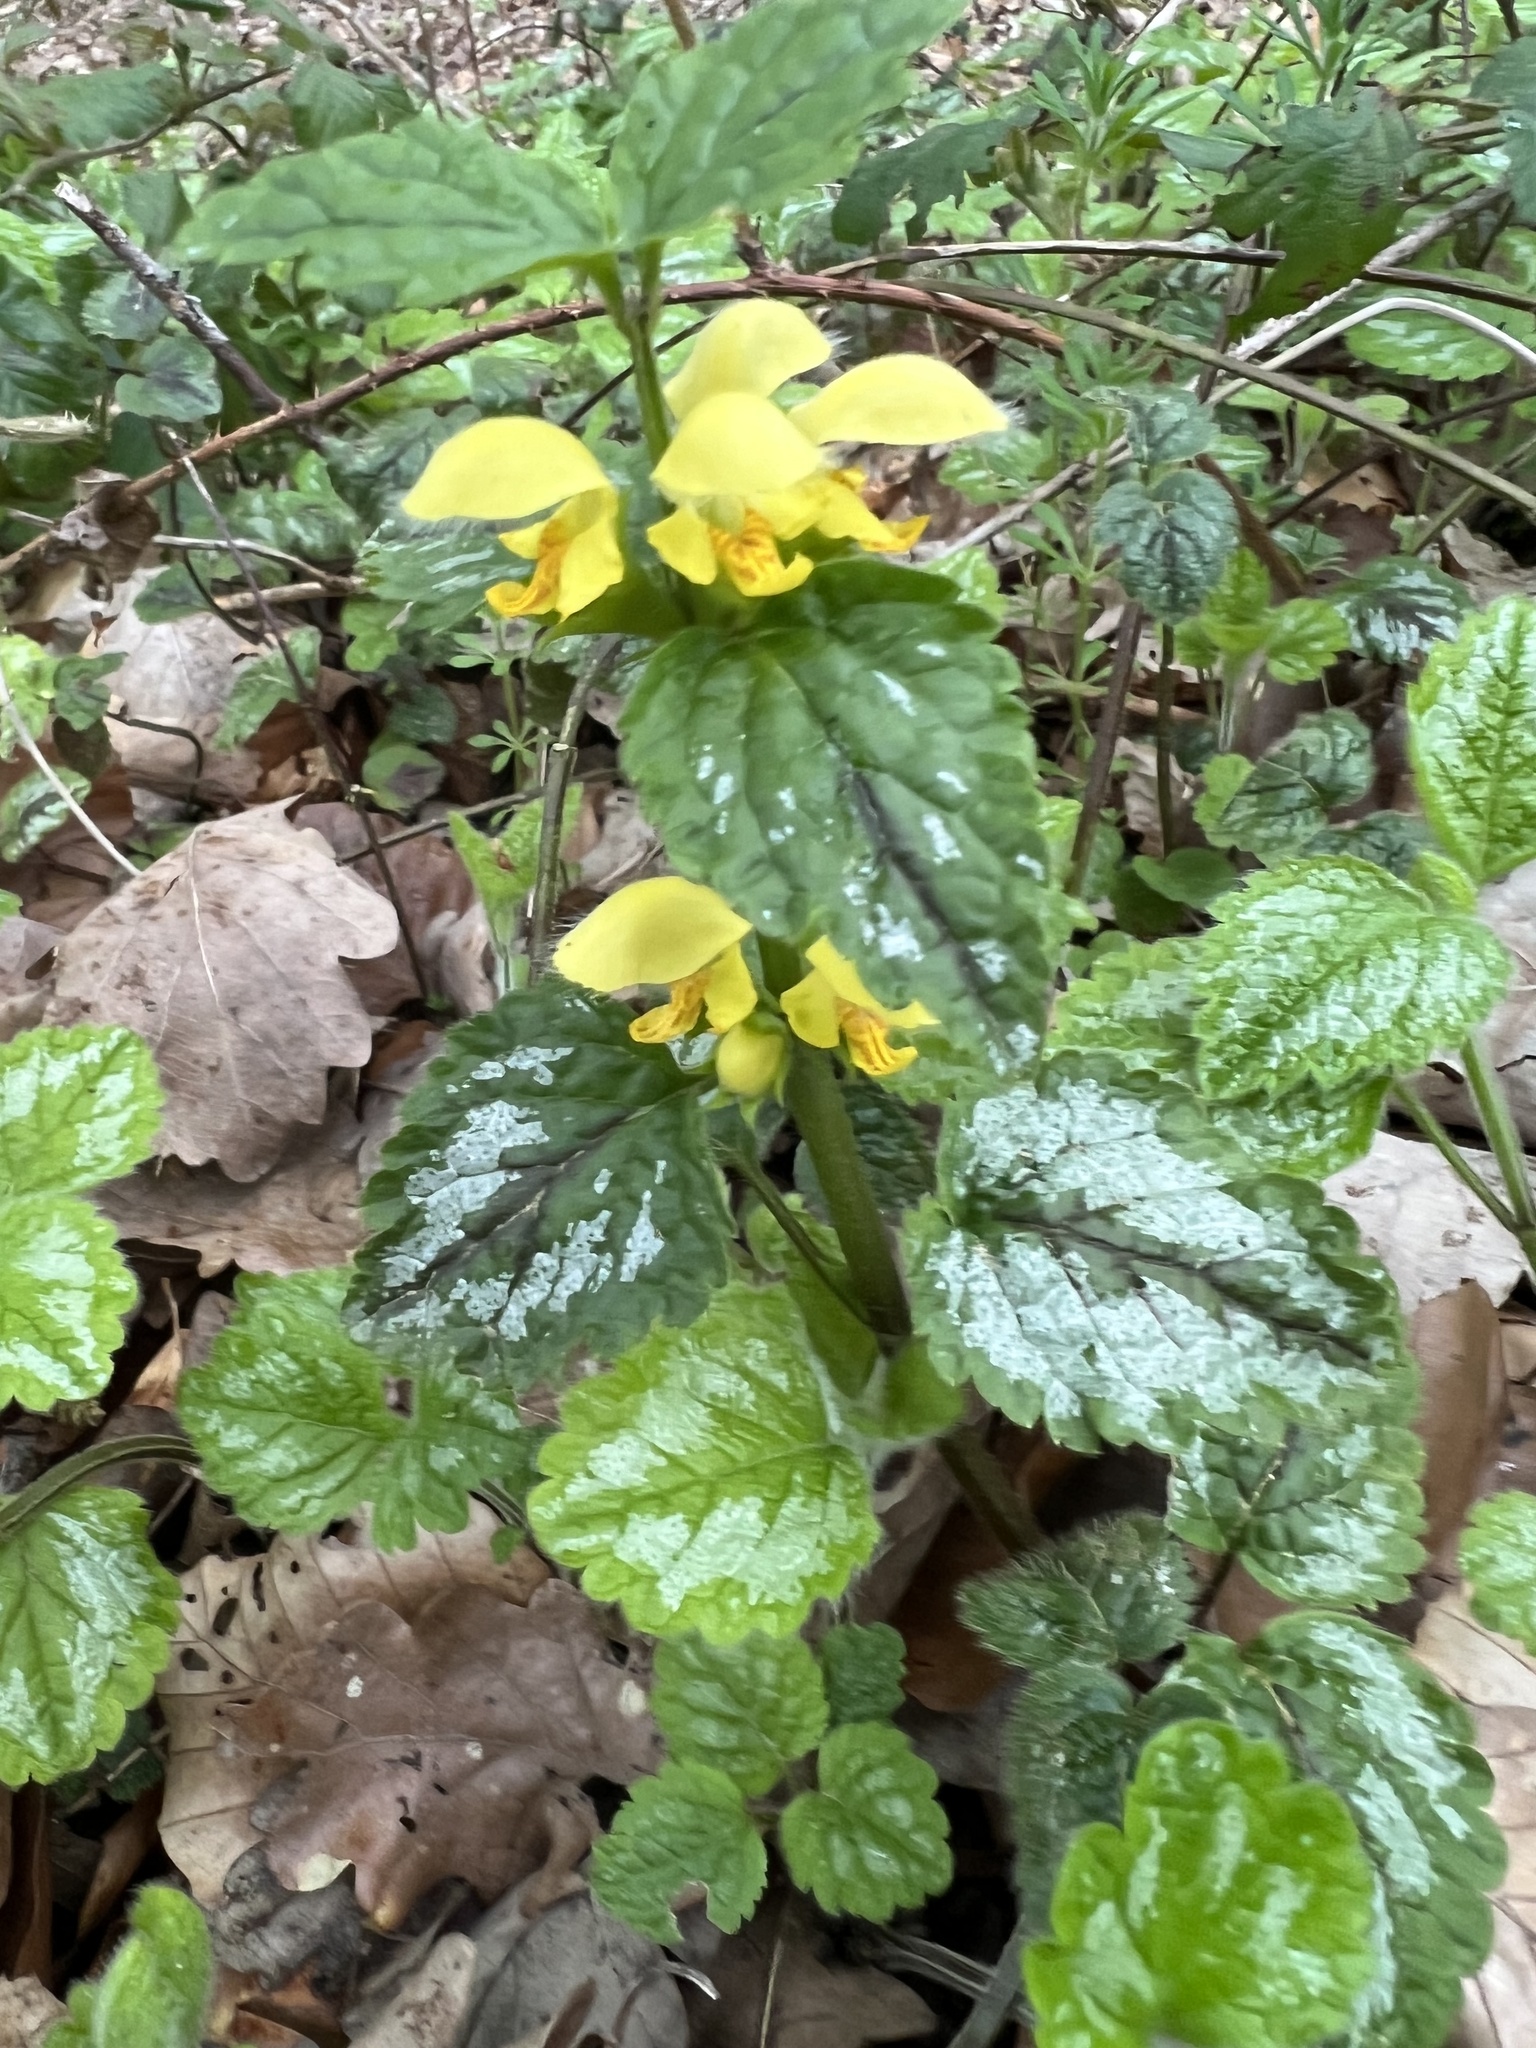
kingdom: Plantae
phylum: Tracheophyta
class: Magnoliopsida
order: Lamiales
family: Lamiaceae
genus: Lamium
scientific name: Lamium galeobdolon
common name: Yellow archangel
